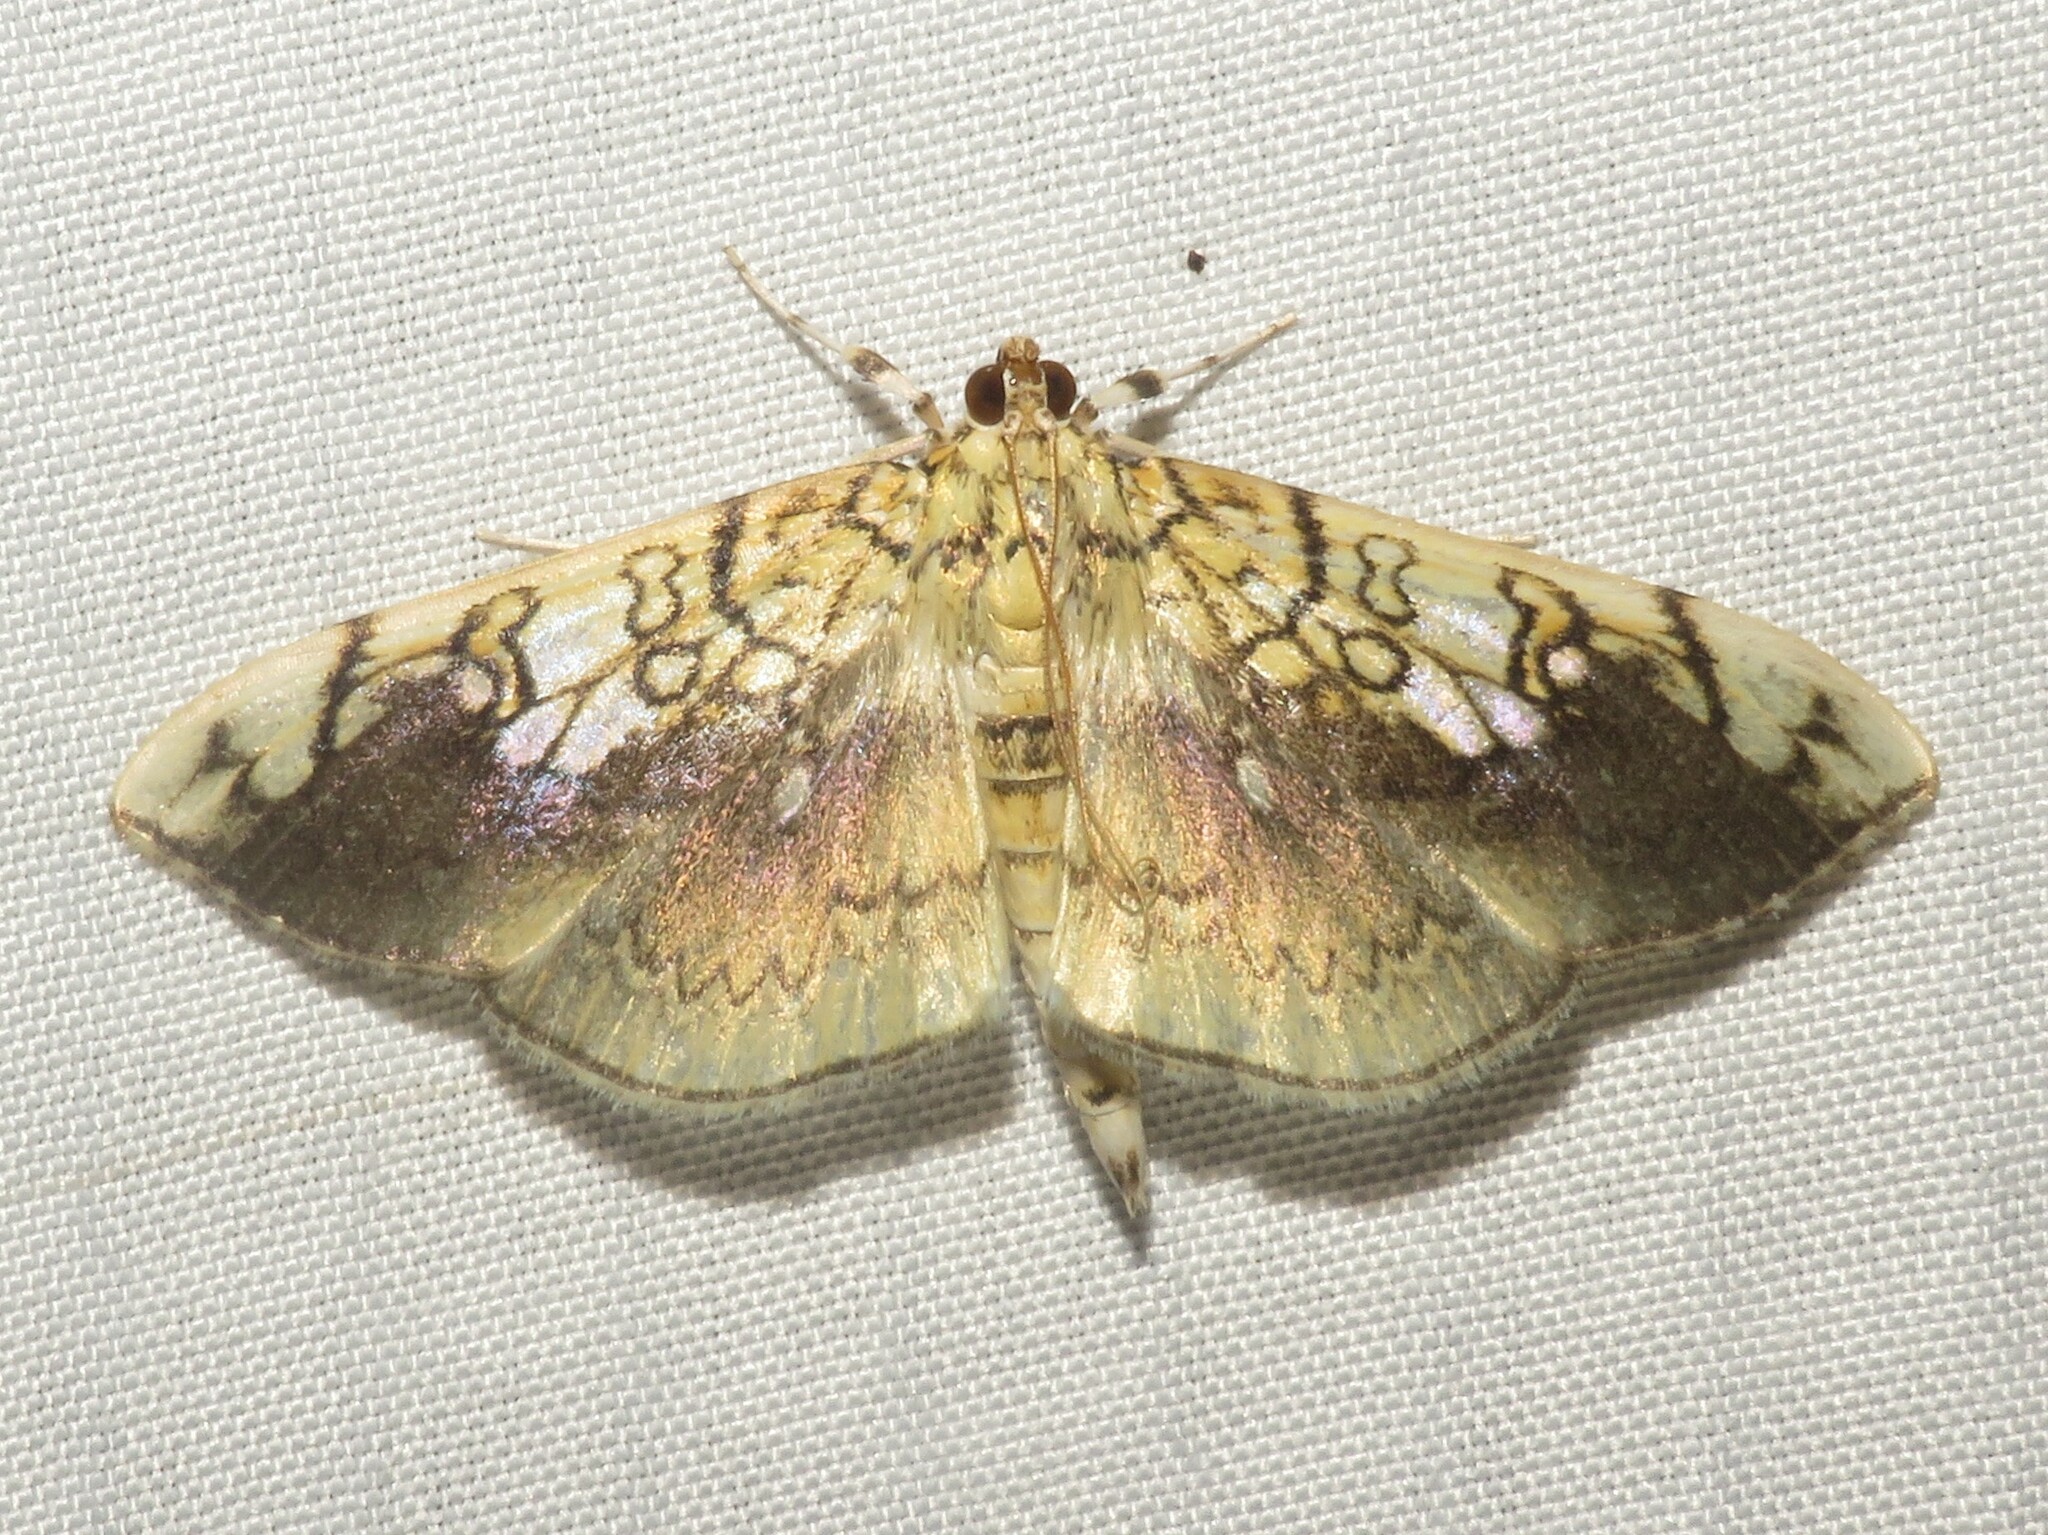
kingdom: Animalia
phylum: Arthropoda
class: Insecta
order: Lepidoptera
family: Crambidae
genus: Pantographa
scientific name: Pantographa limata
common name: Basswood leafroller moth
